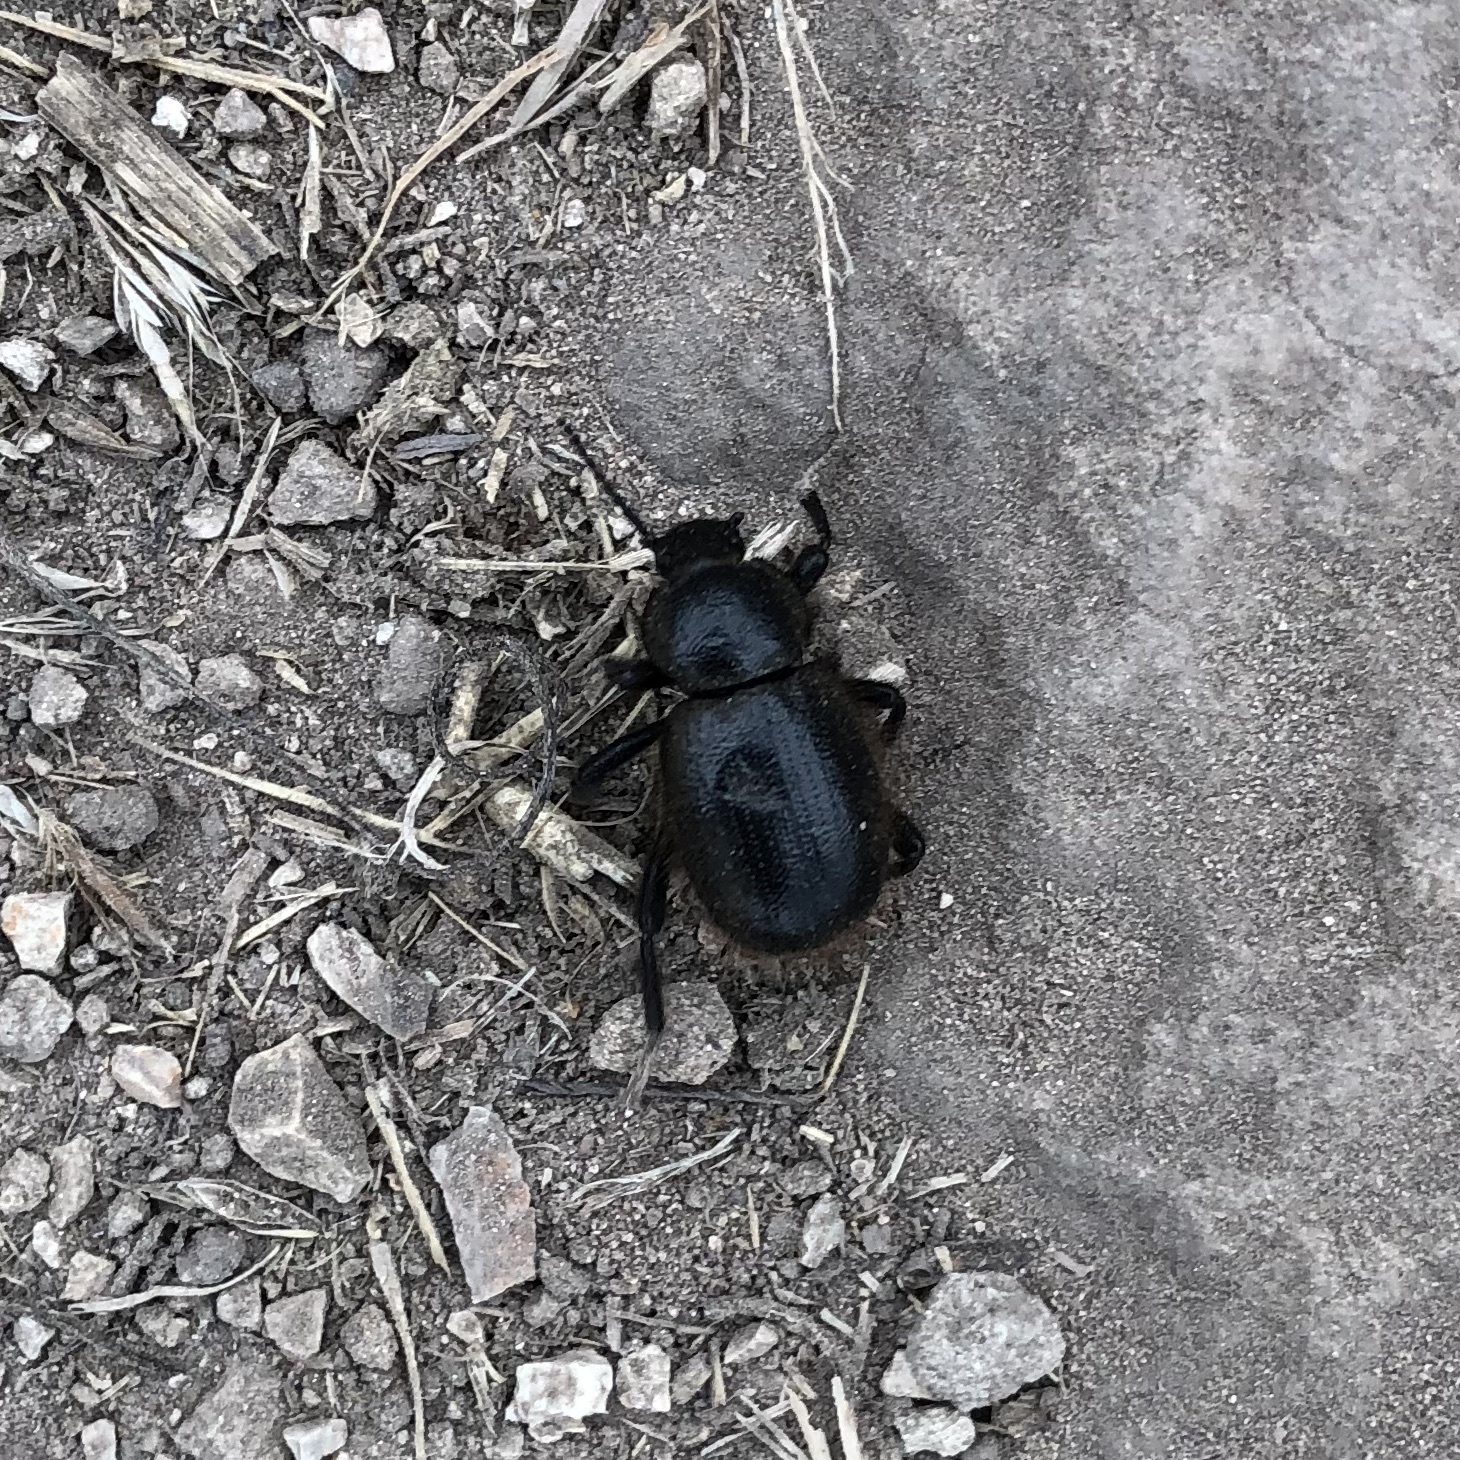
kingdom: Animalia
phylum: Arthropoda
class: Insecta
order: Coleoptera
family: Tenebrionidae
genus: Eleodes
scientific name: Eleodes osculans
